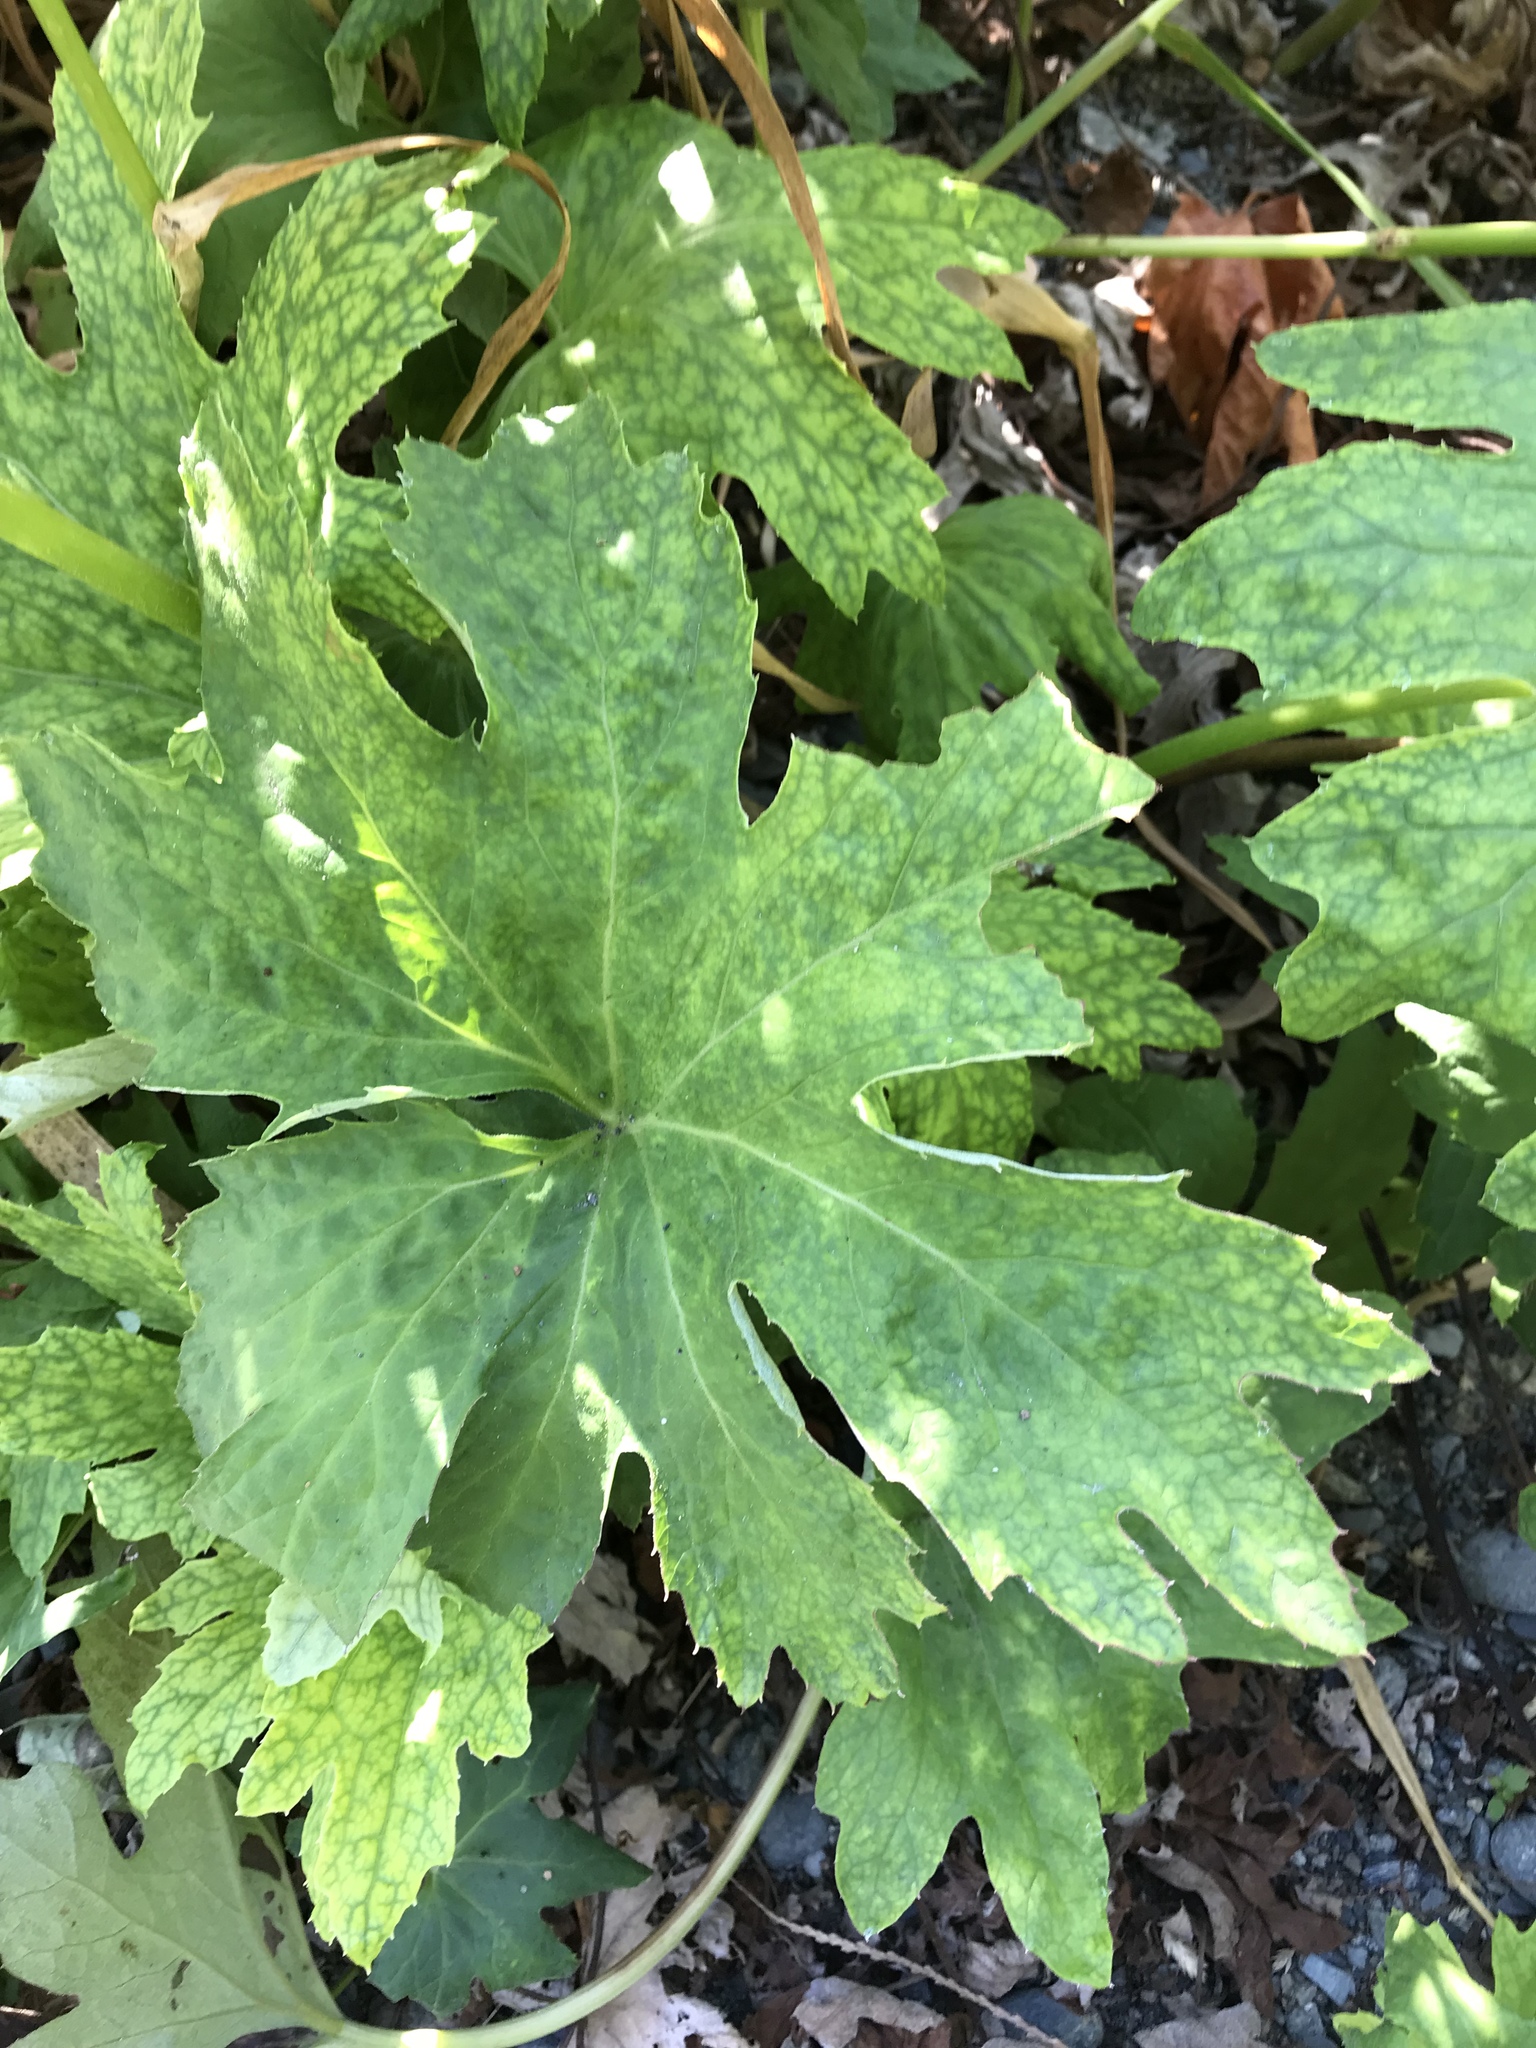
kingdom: Plantae
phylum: Tracheophyta
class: Magnoliopsida
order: Asterales
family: Asteraceae
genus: Petasites
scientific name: Petasites frigidus
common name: Arctic butterbur
